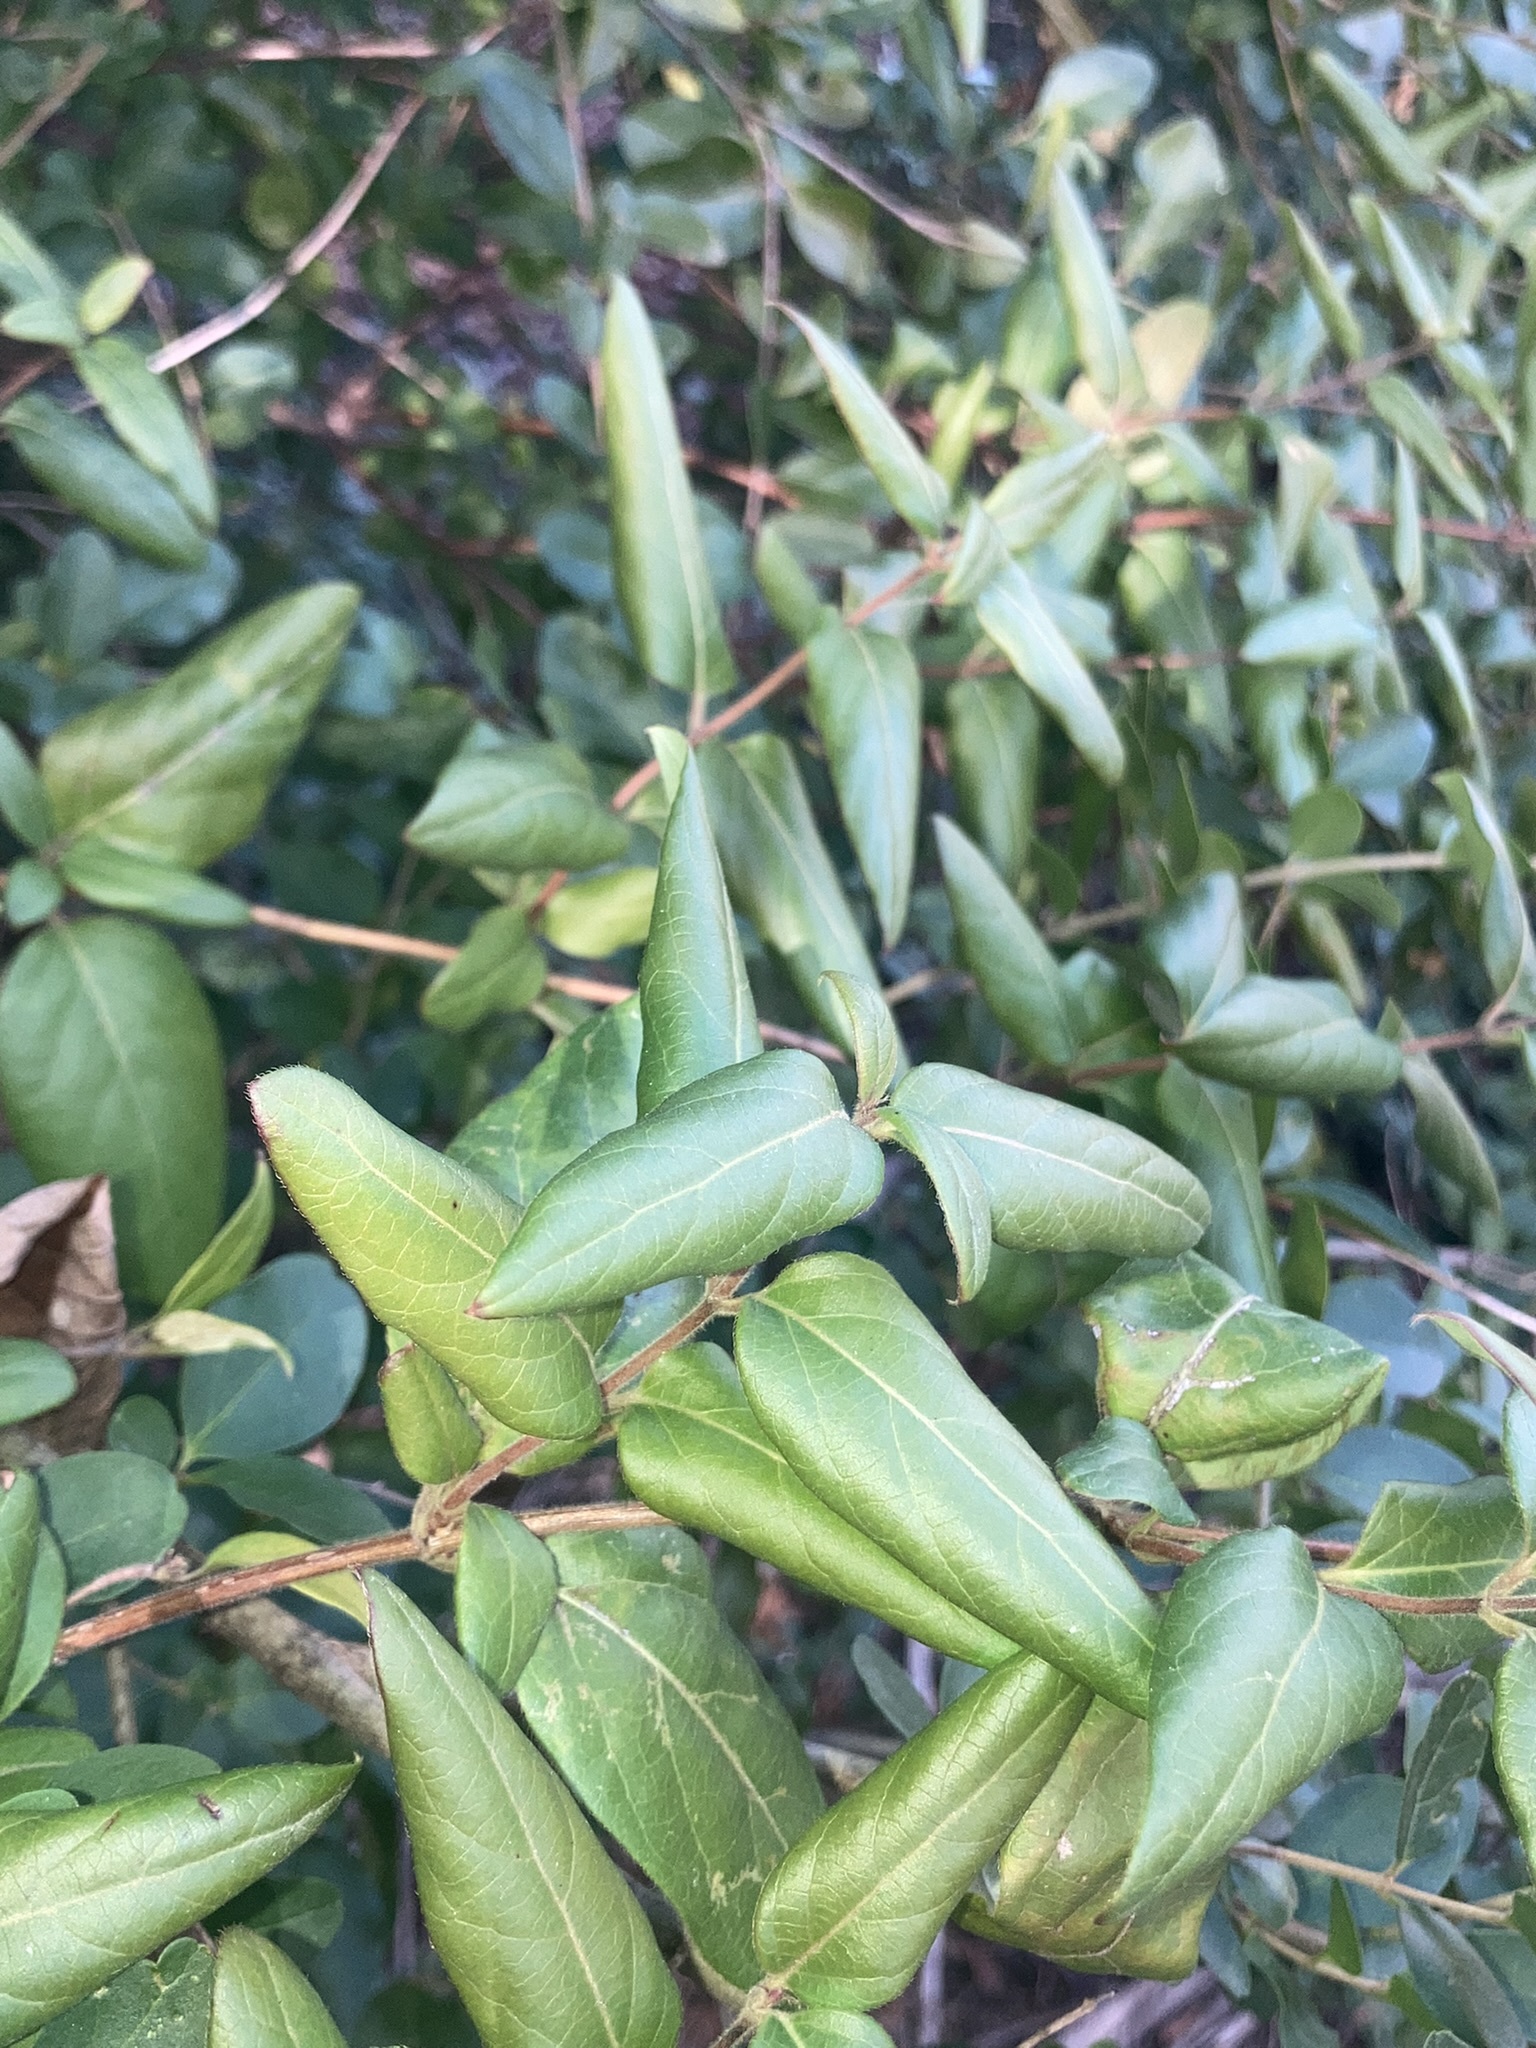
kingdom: Plantae
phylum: Tracheophyta
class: Magnoliopsida
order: Dipsacales
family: Caprifoliaceae
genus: Lonicera
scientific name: Lonicera japonica
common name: Japanese honeysuckle
